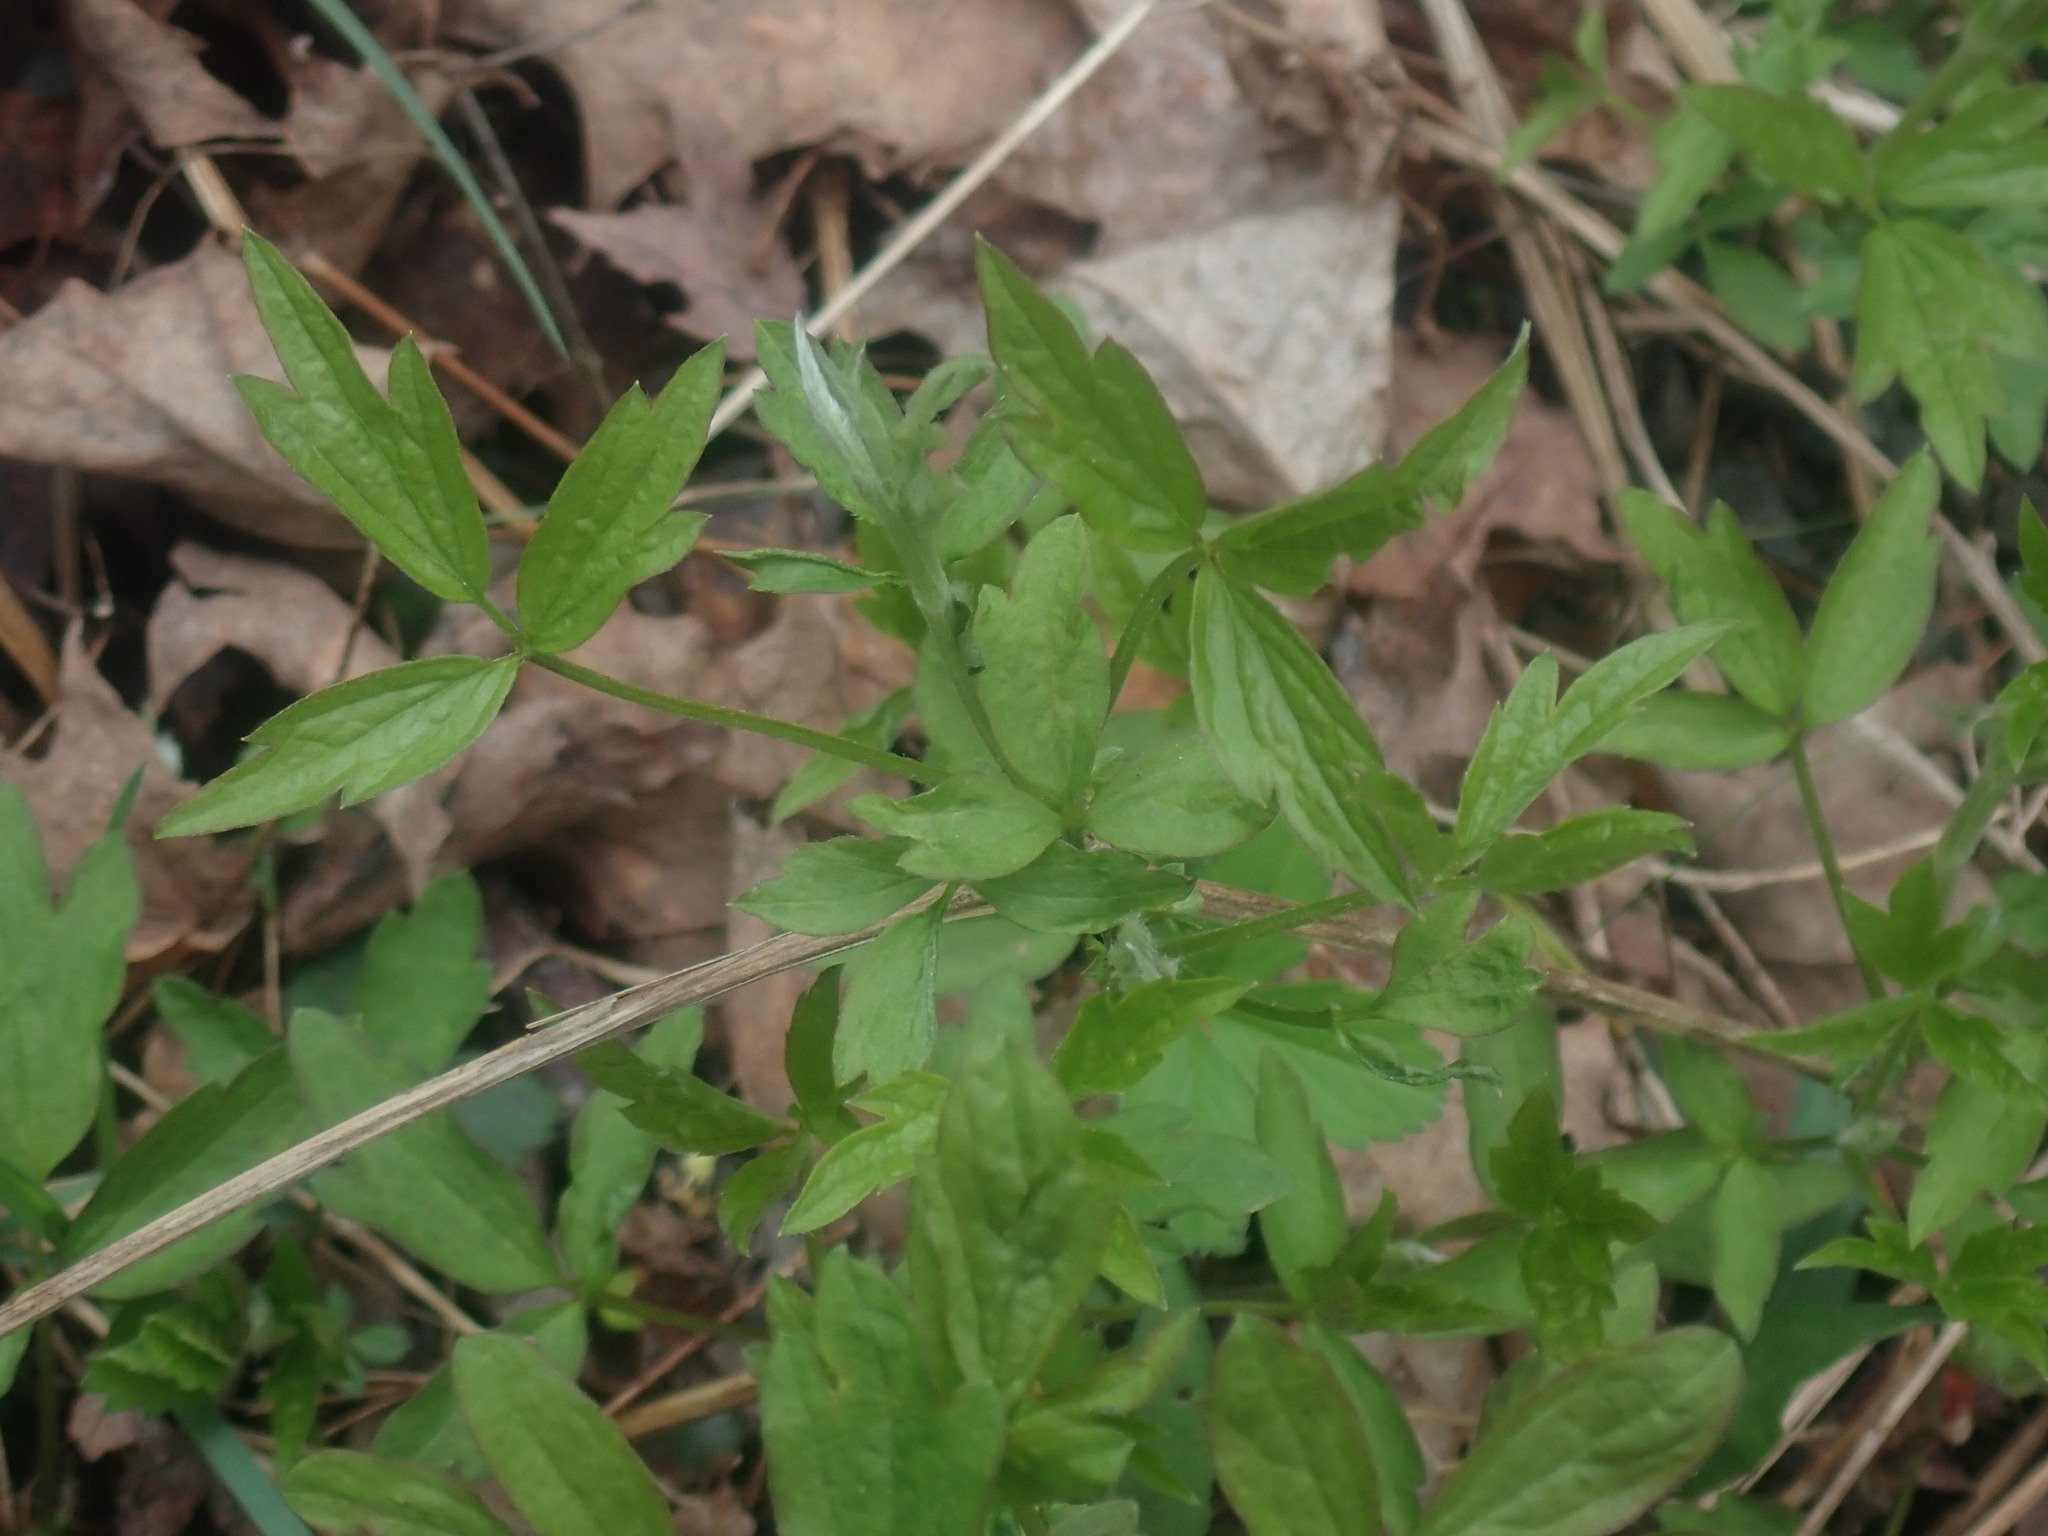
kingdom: Plantae
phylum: Tracheophyta
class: Magnoliopsida
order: Ranunculales
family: Ranunculaceae
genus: Clematis
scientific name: Clematis virginiana
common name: Virgin's-bower
